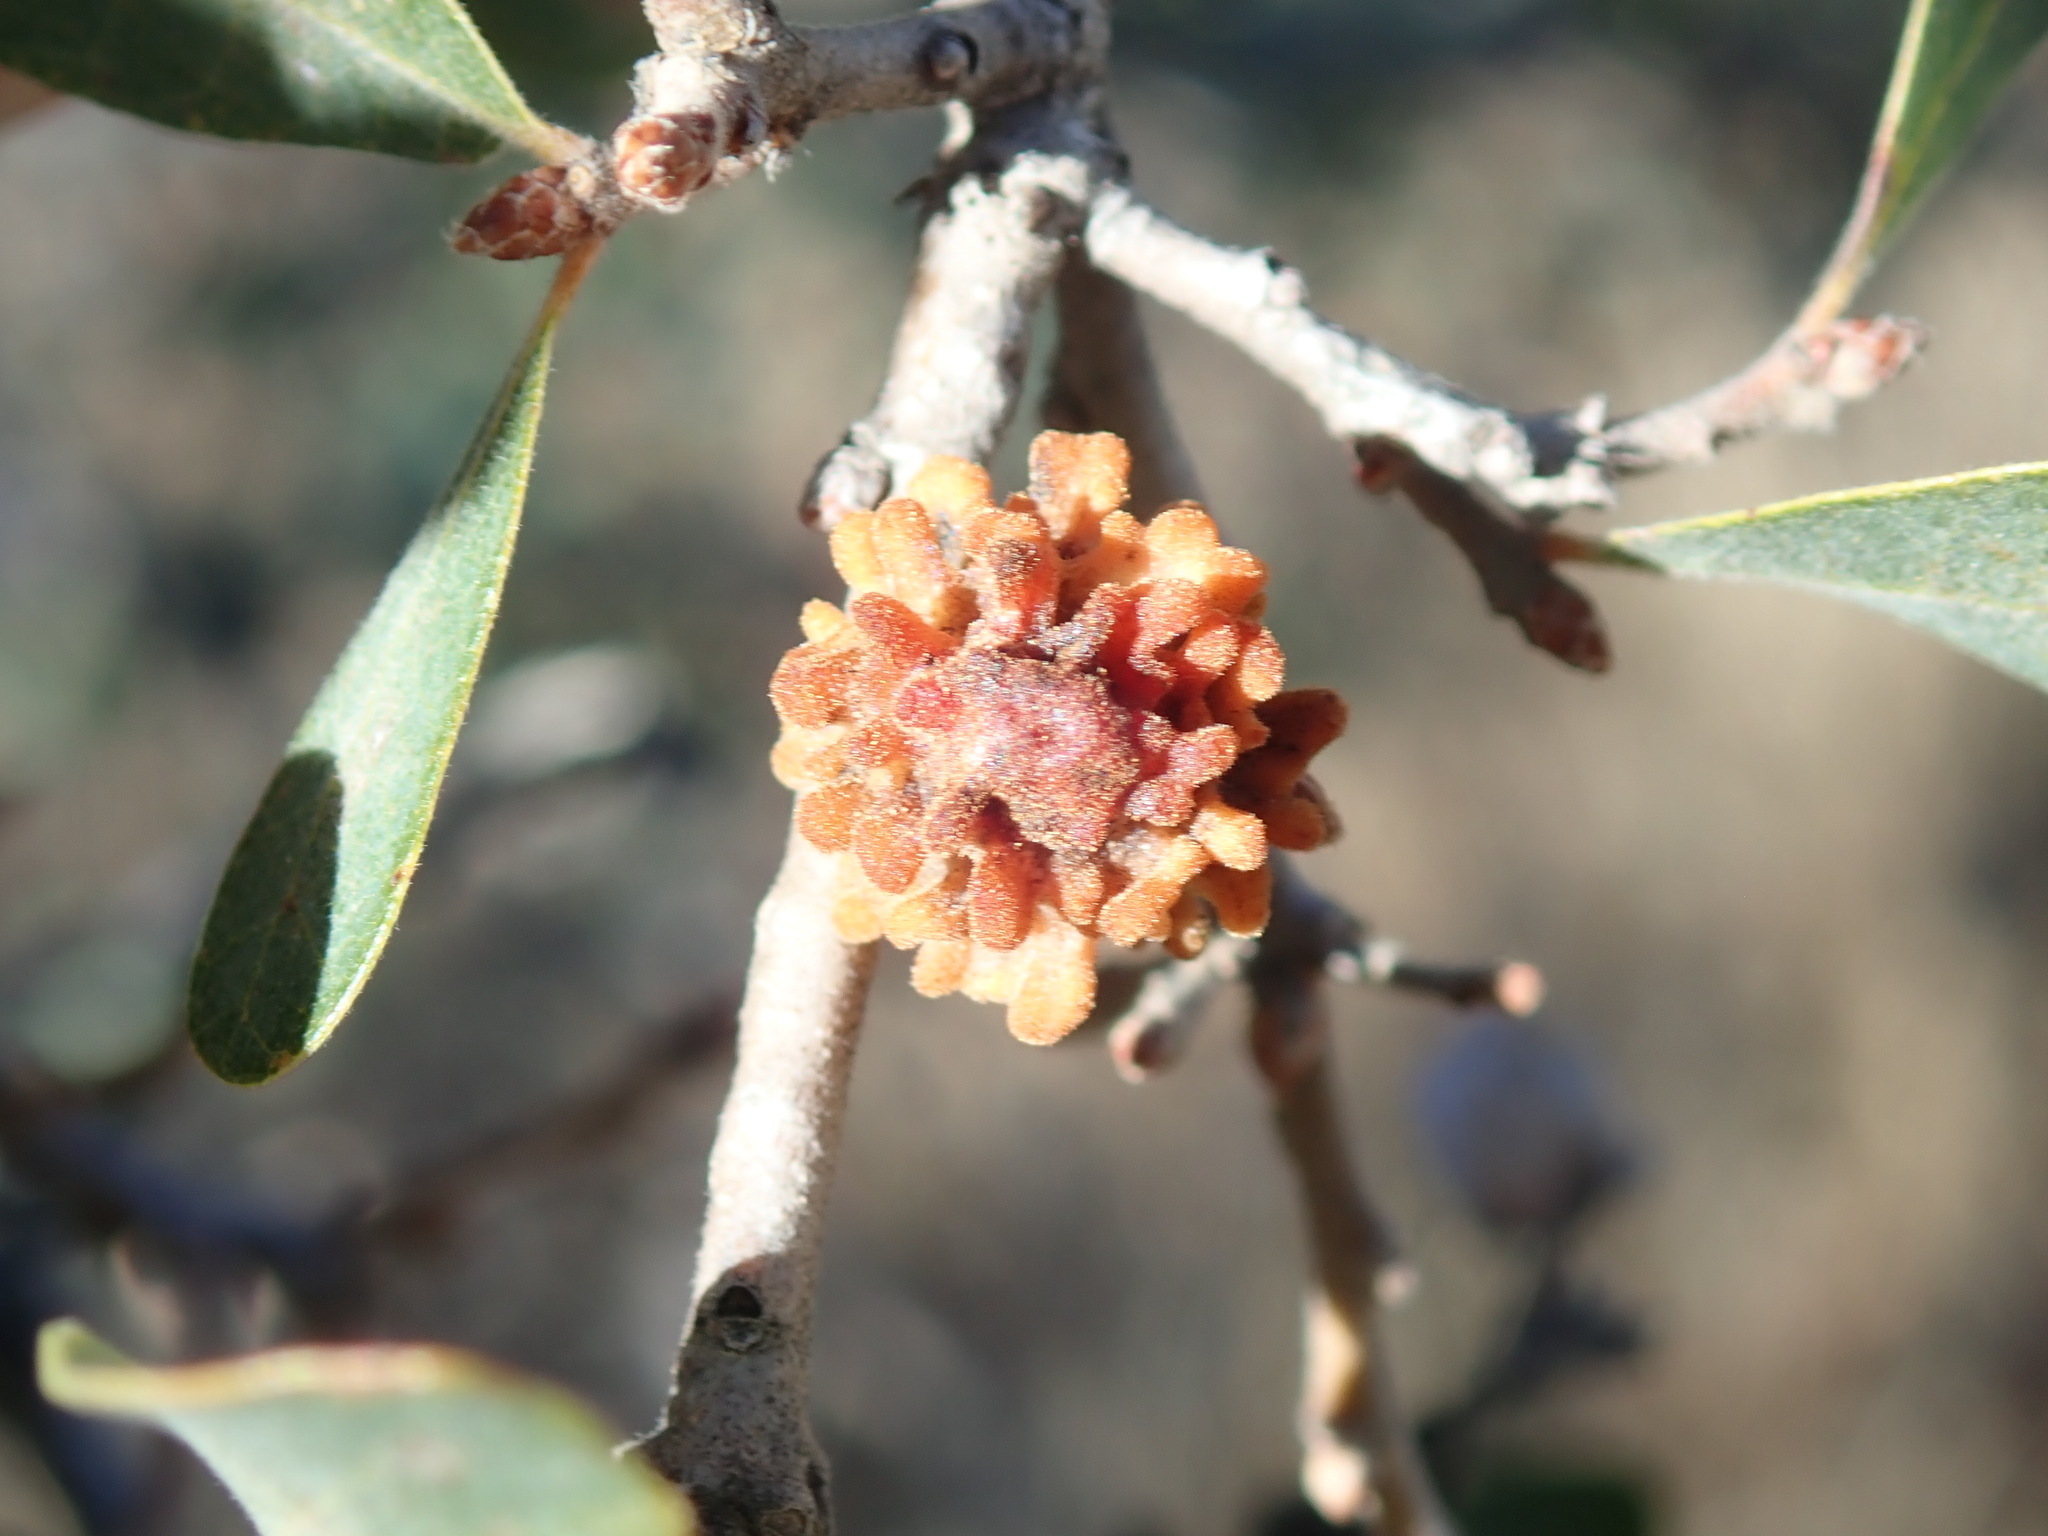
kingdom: Animalia
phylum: Arthropoda
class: Insecta
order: Hymenoptera
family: Cynipidae
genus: Burnettweldia
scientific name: Burnettweldia
